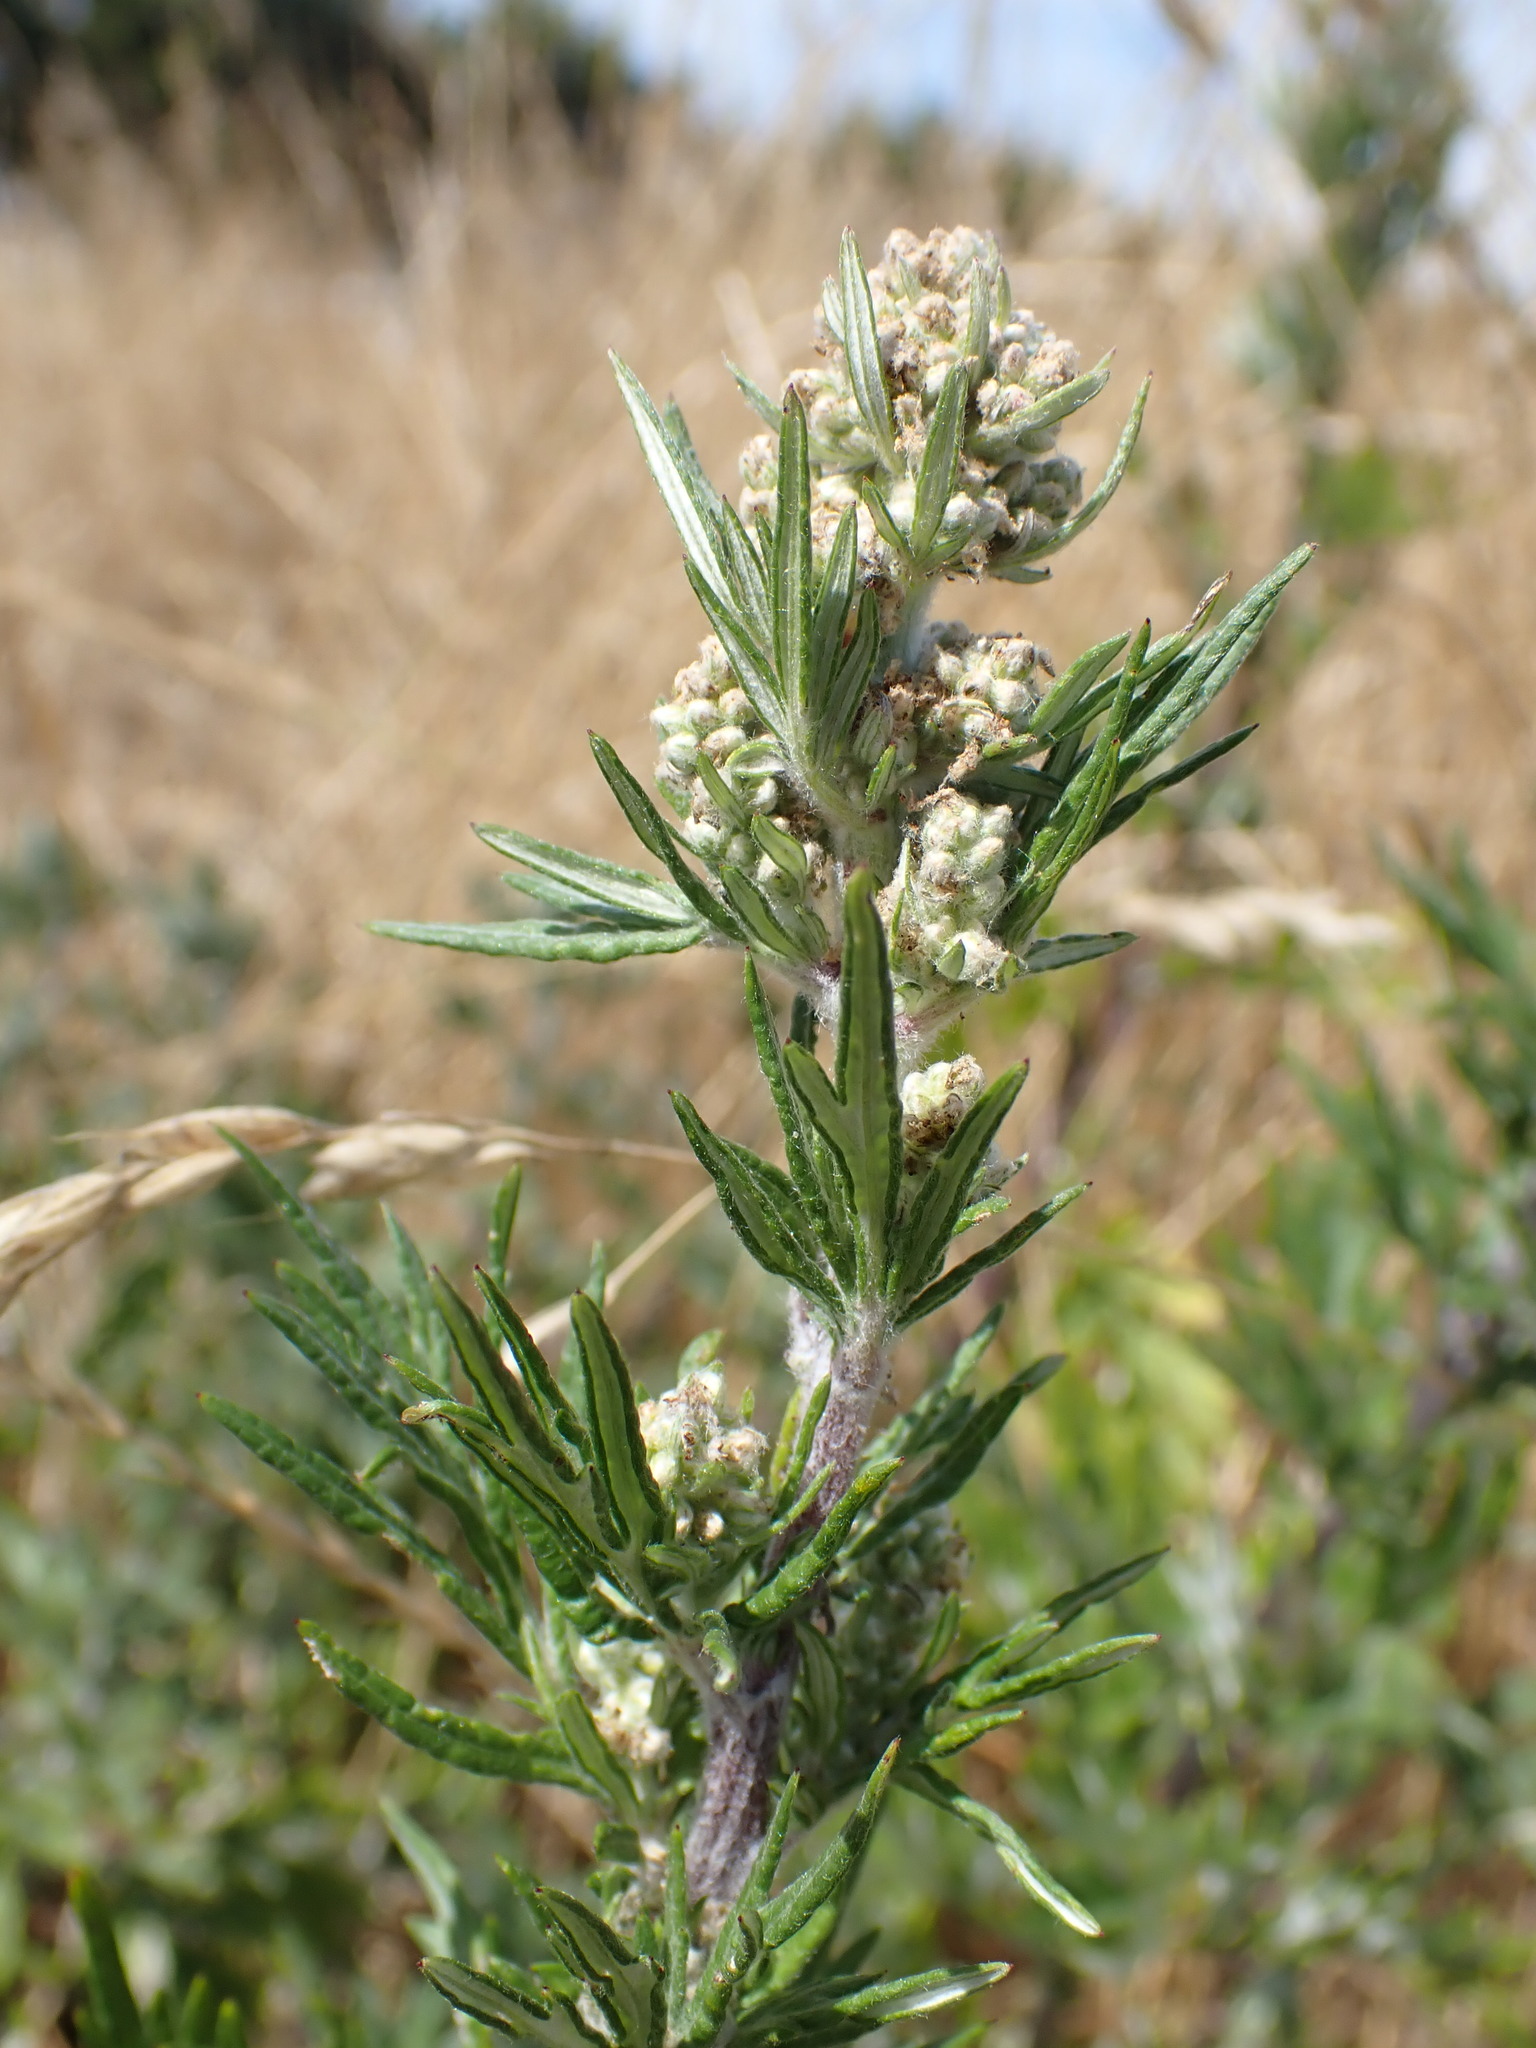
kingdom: Plantae
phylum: Tracheophyta
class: Magnoliopsida
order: Asterales
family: Asteraceae
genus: Artemisia
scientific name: Artemisia vulgaris
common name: Mugwort
